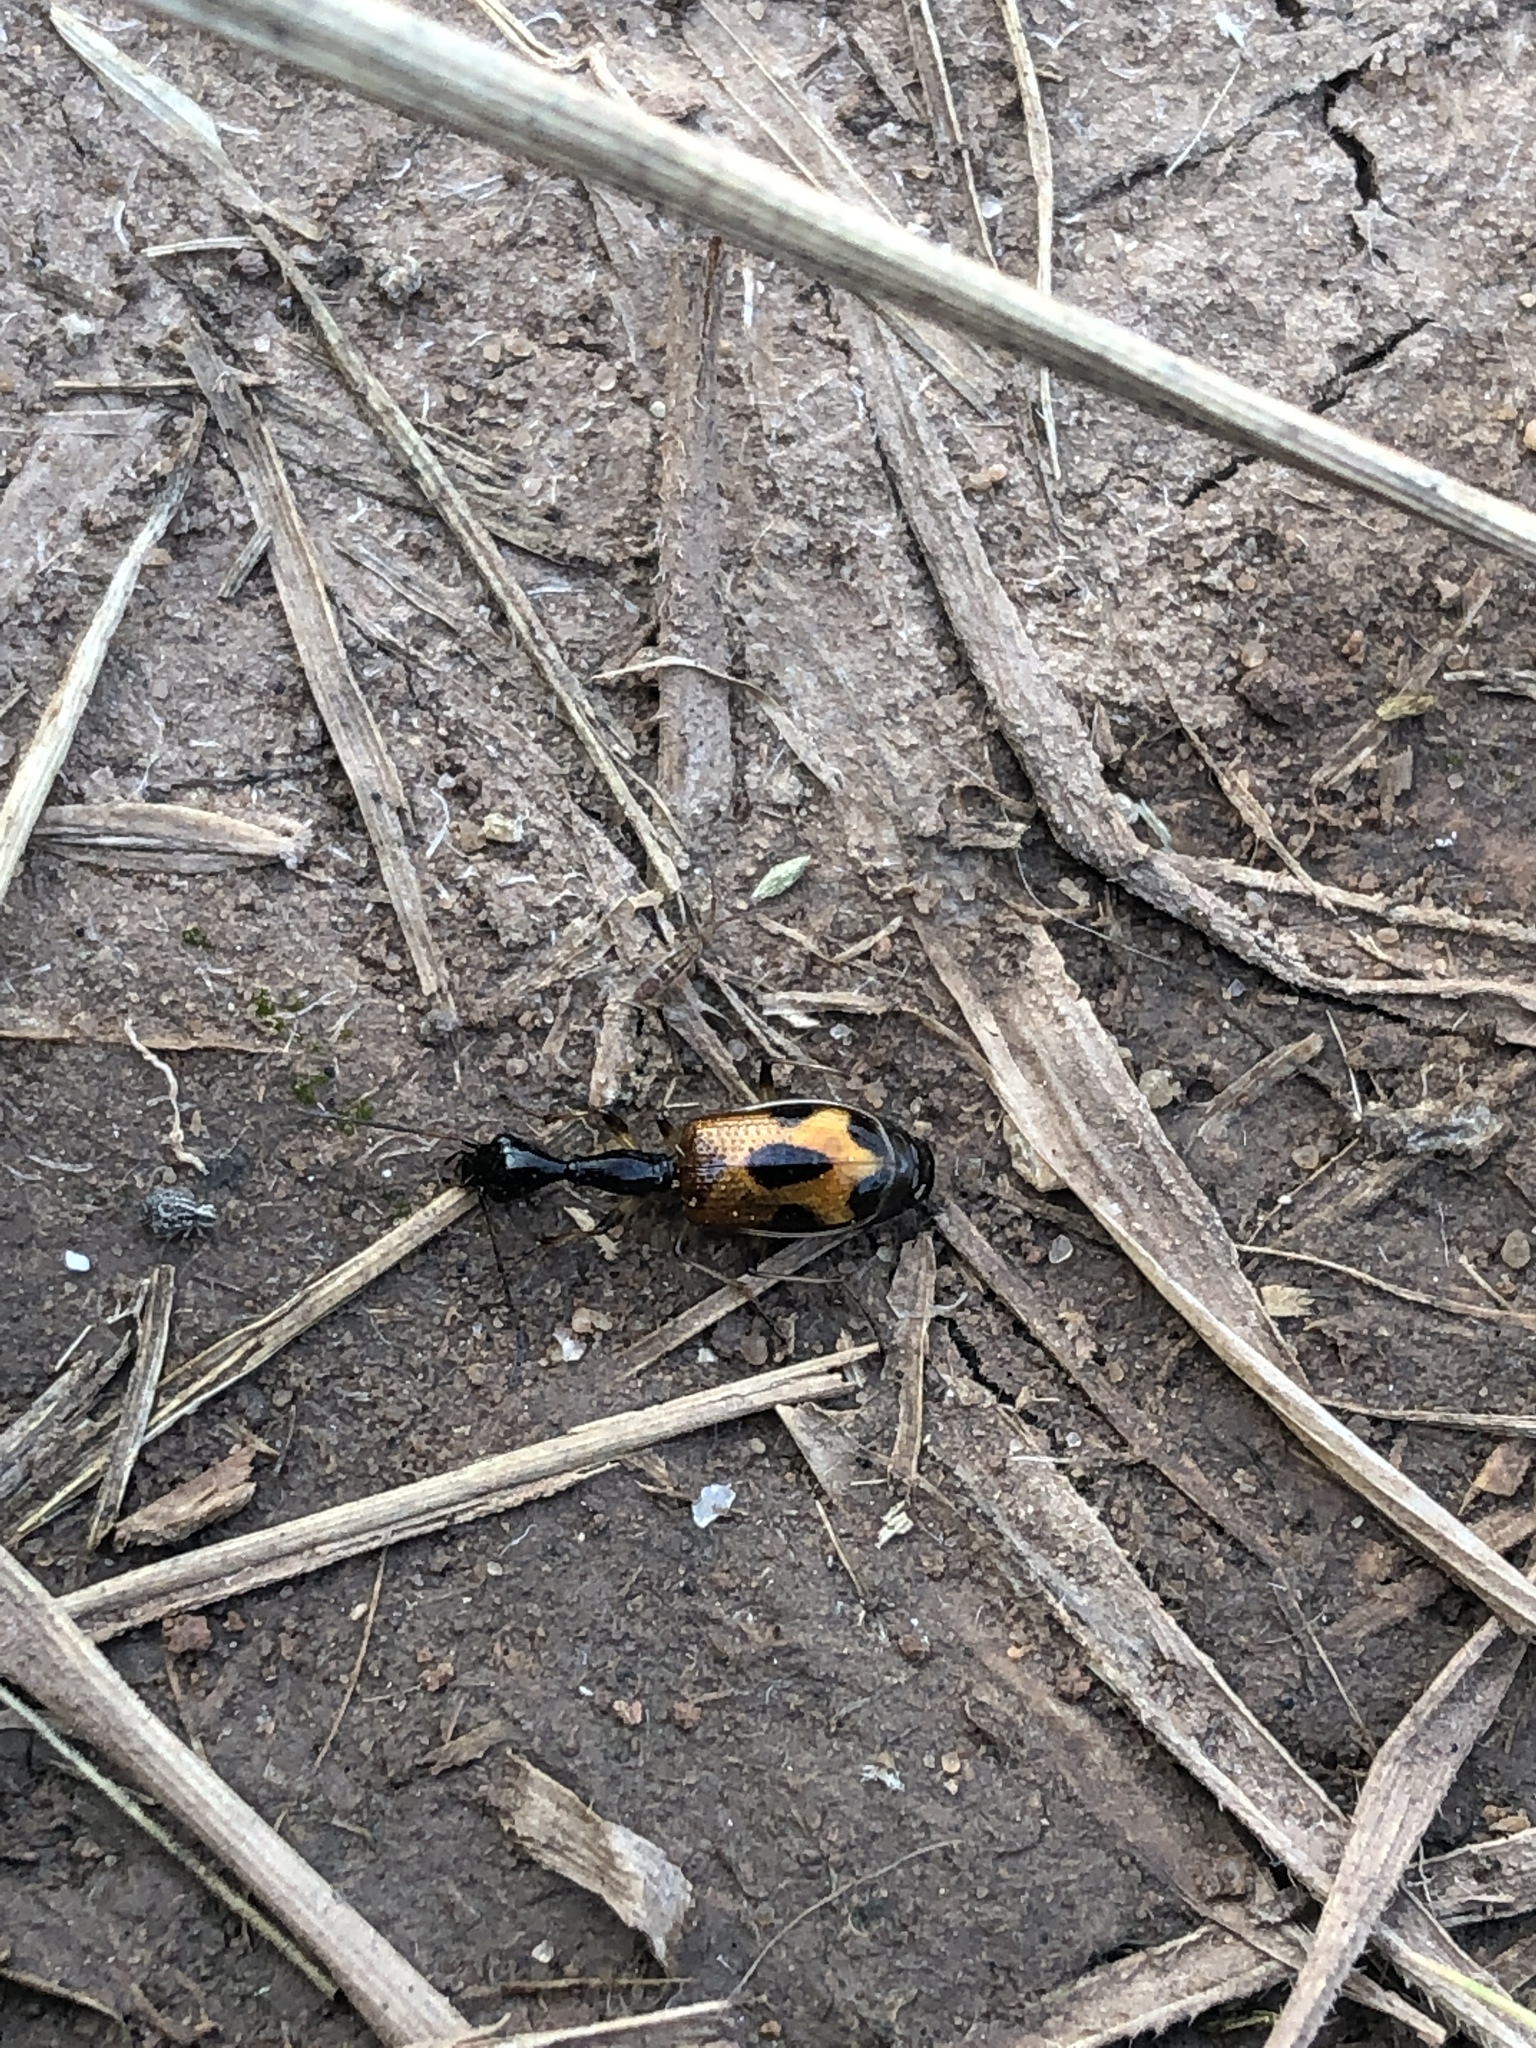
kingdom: Animalia
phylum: Arthropoda
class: Insecta
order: Coleoptera
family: Carabidae
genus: Colliuris
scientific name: Colliuris pensylvanica
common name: Long-necked ground beetle
